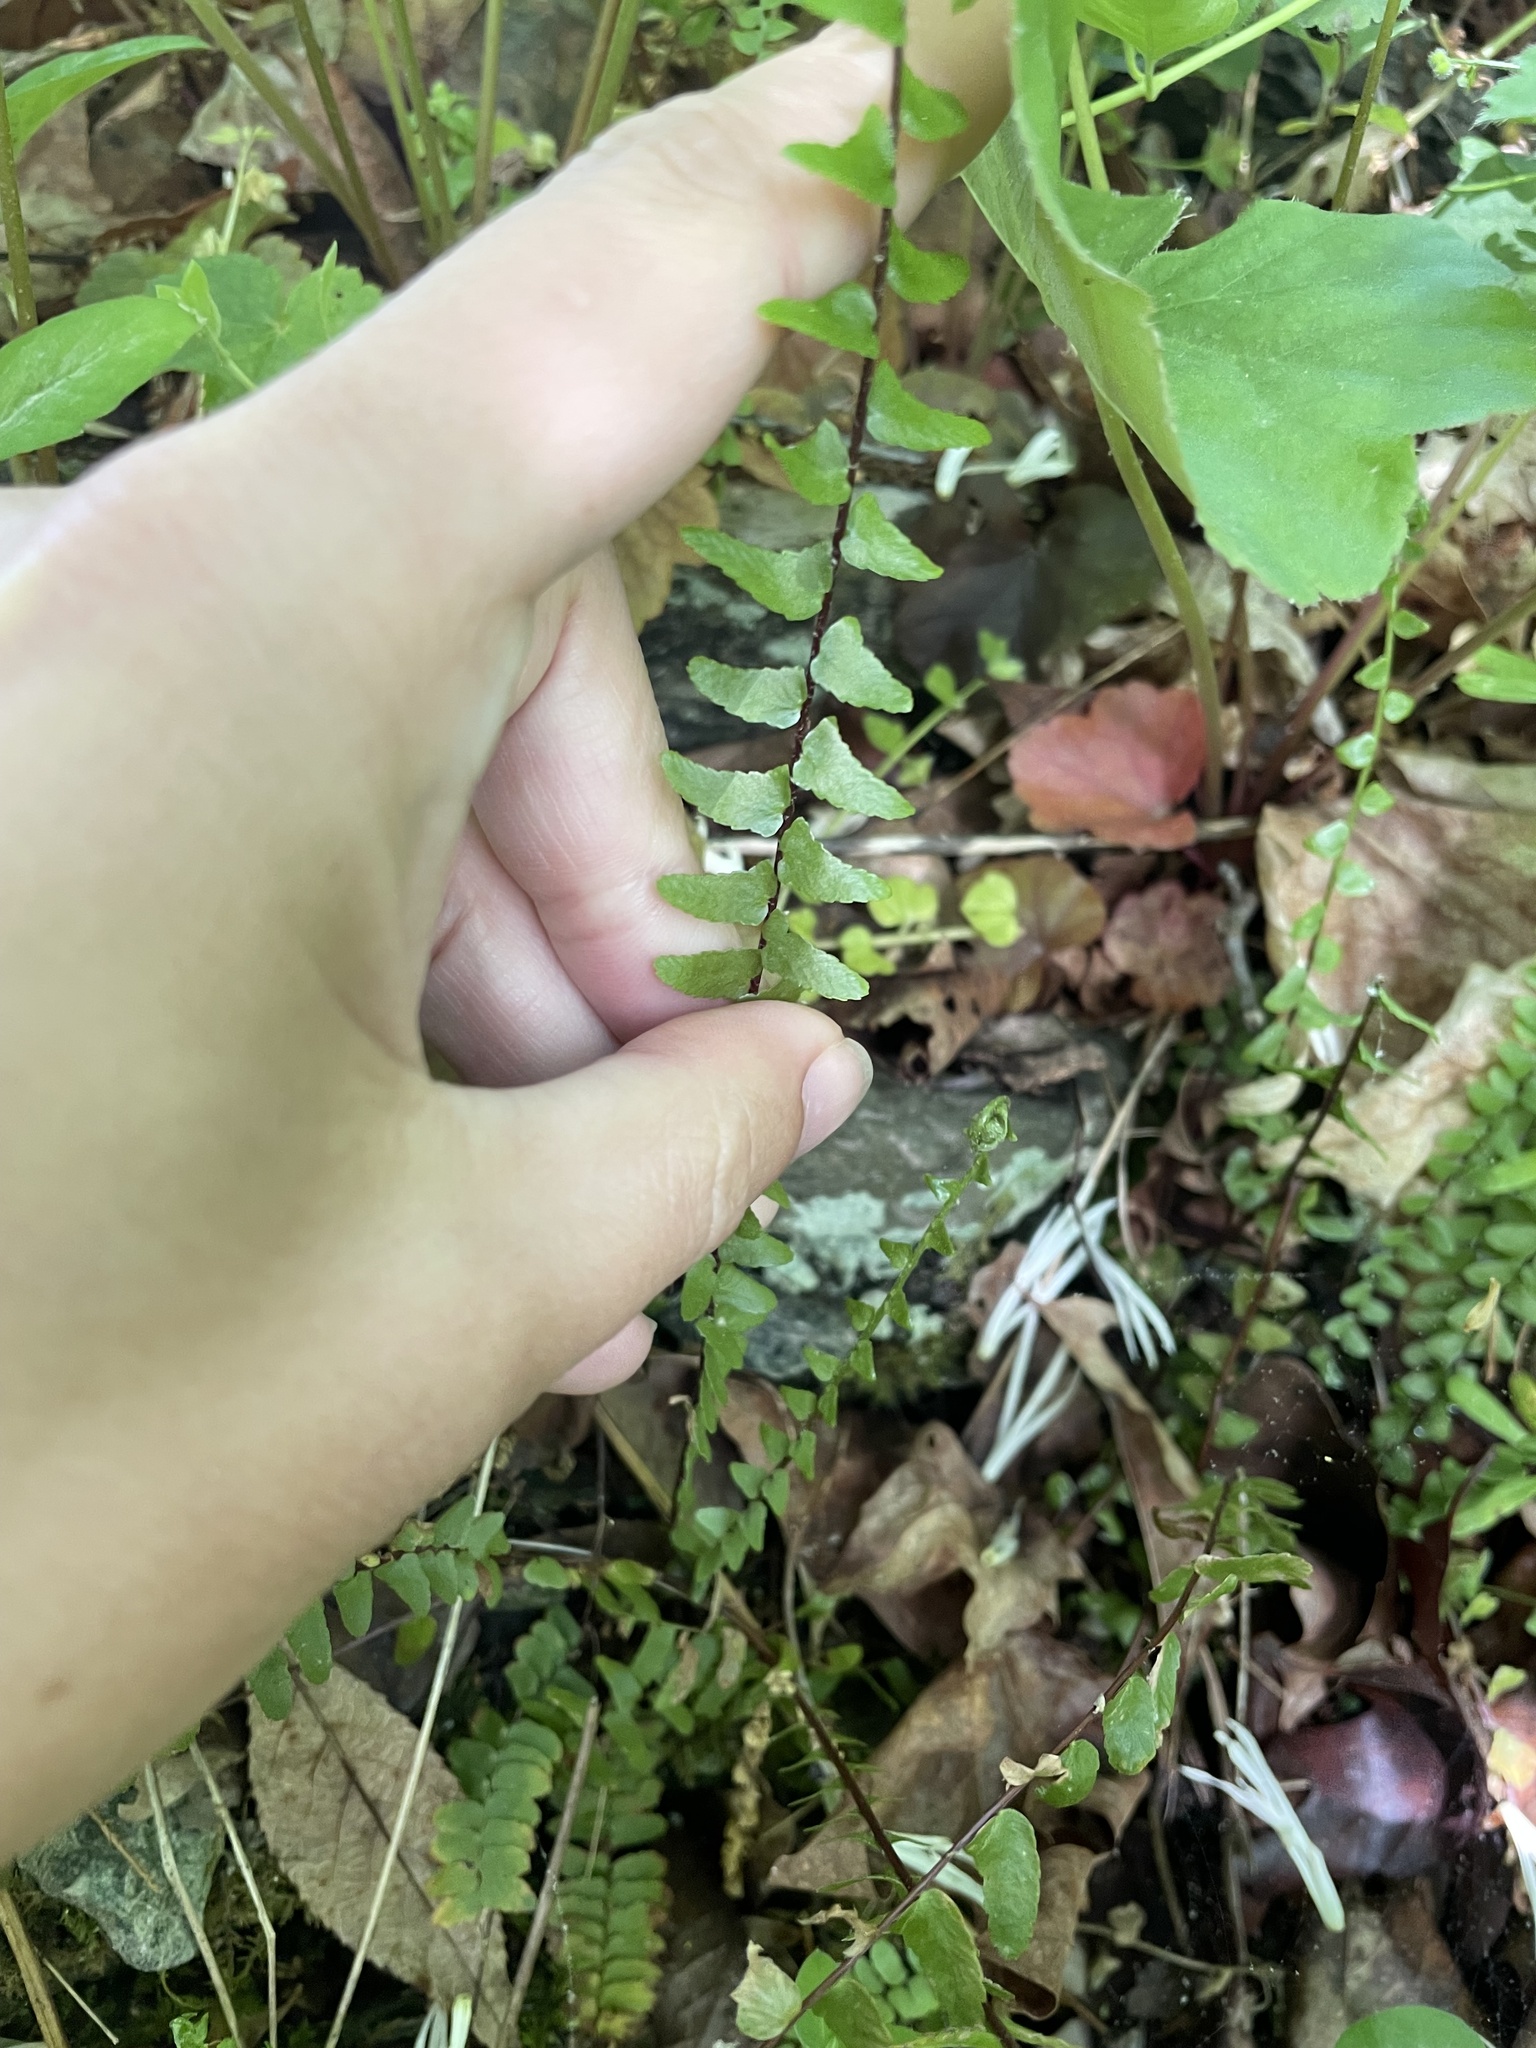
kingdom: Plantae
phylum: Tracheophyta
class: Polypodiopsida
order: Polypodiales
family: Aspleniaceae
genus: Asplenium
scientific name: Asplenium platyneuron
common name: Ebony spleenwort
